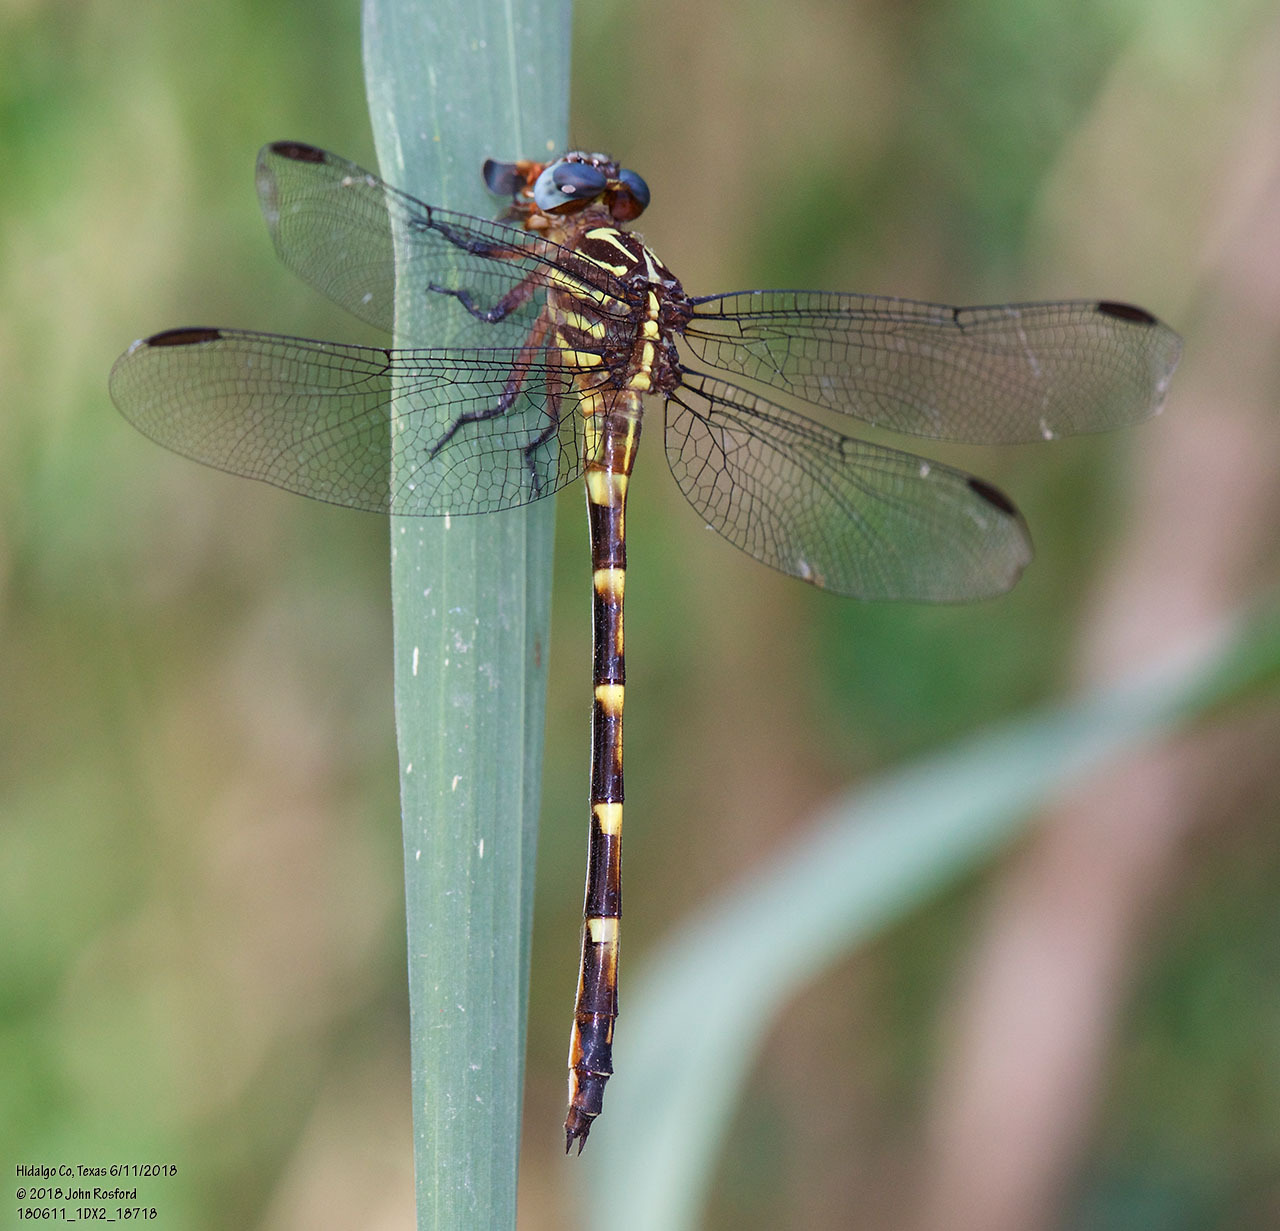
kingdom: Animalia
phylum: Arthropoda
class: Insecta
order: Odonata
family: Gomphidae
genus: Phyllocycla
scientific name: Phyllocycla breviphylla
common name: Ringed forceptail
